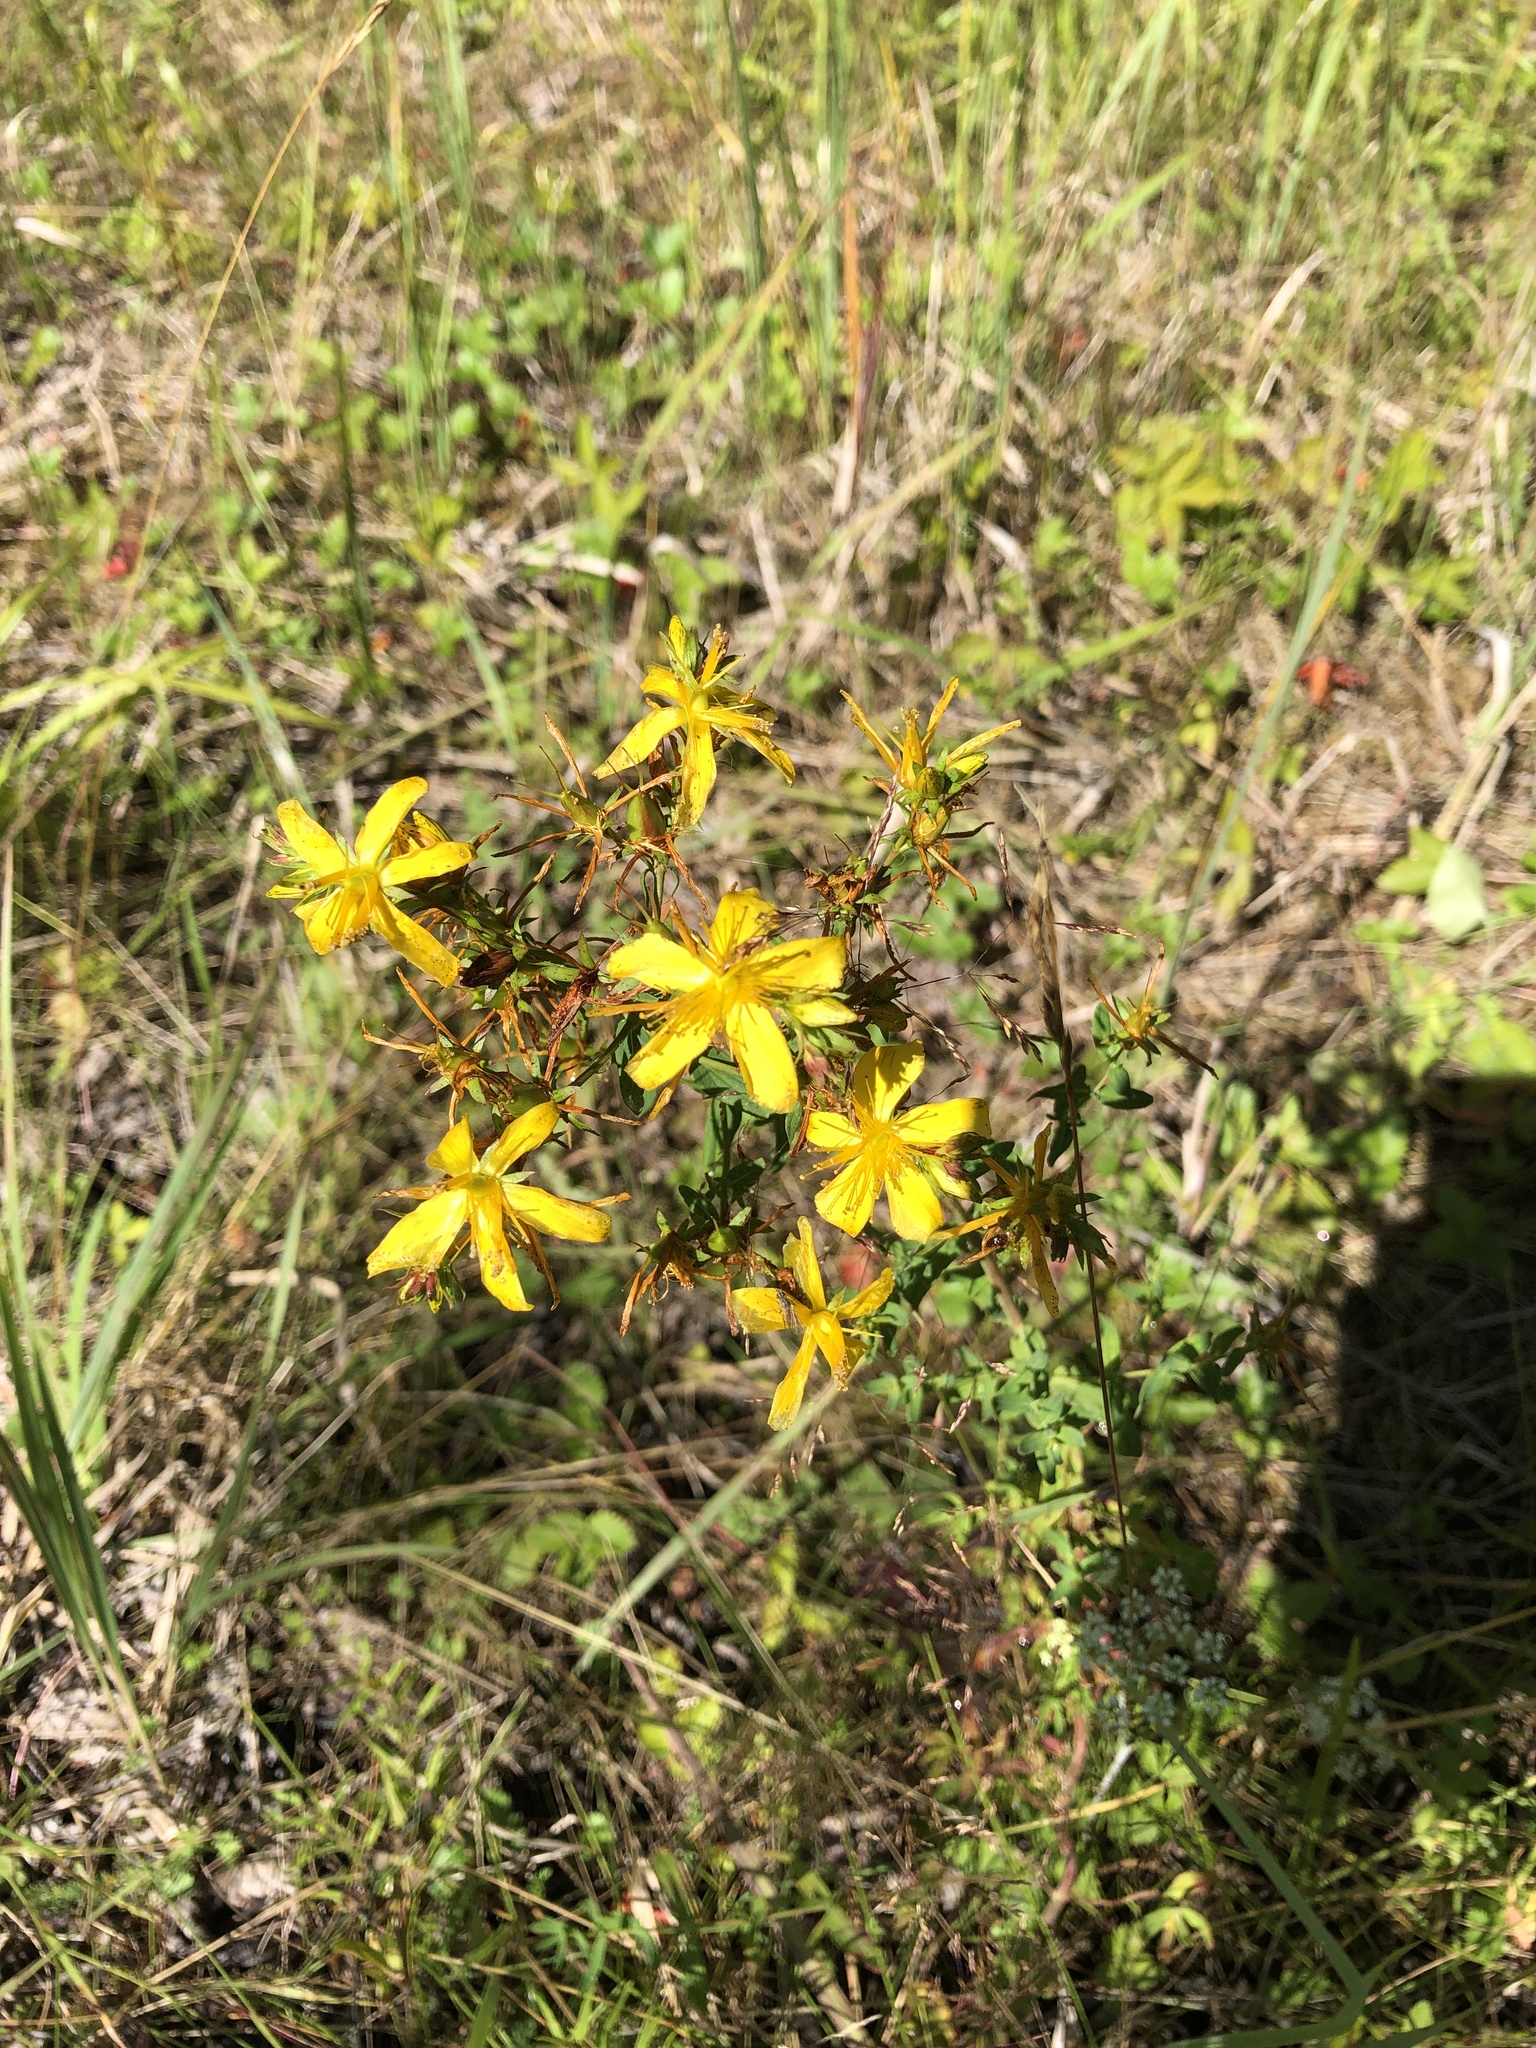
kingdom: Plantae
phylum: Tracheophyta
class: Magnoliopsida
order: Malpighiales
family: Hypericaceae
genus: Hypericum
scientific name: Hypericum perforatum
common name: Common st. johnswort
